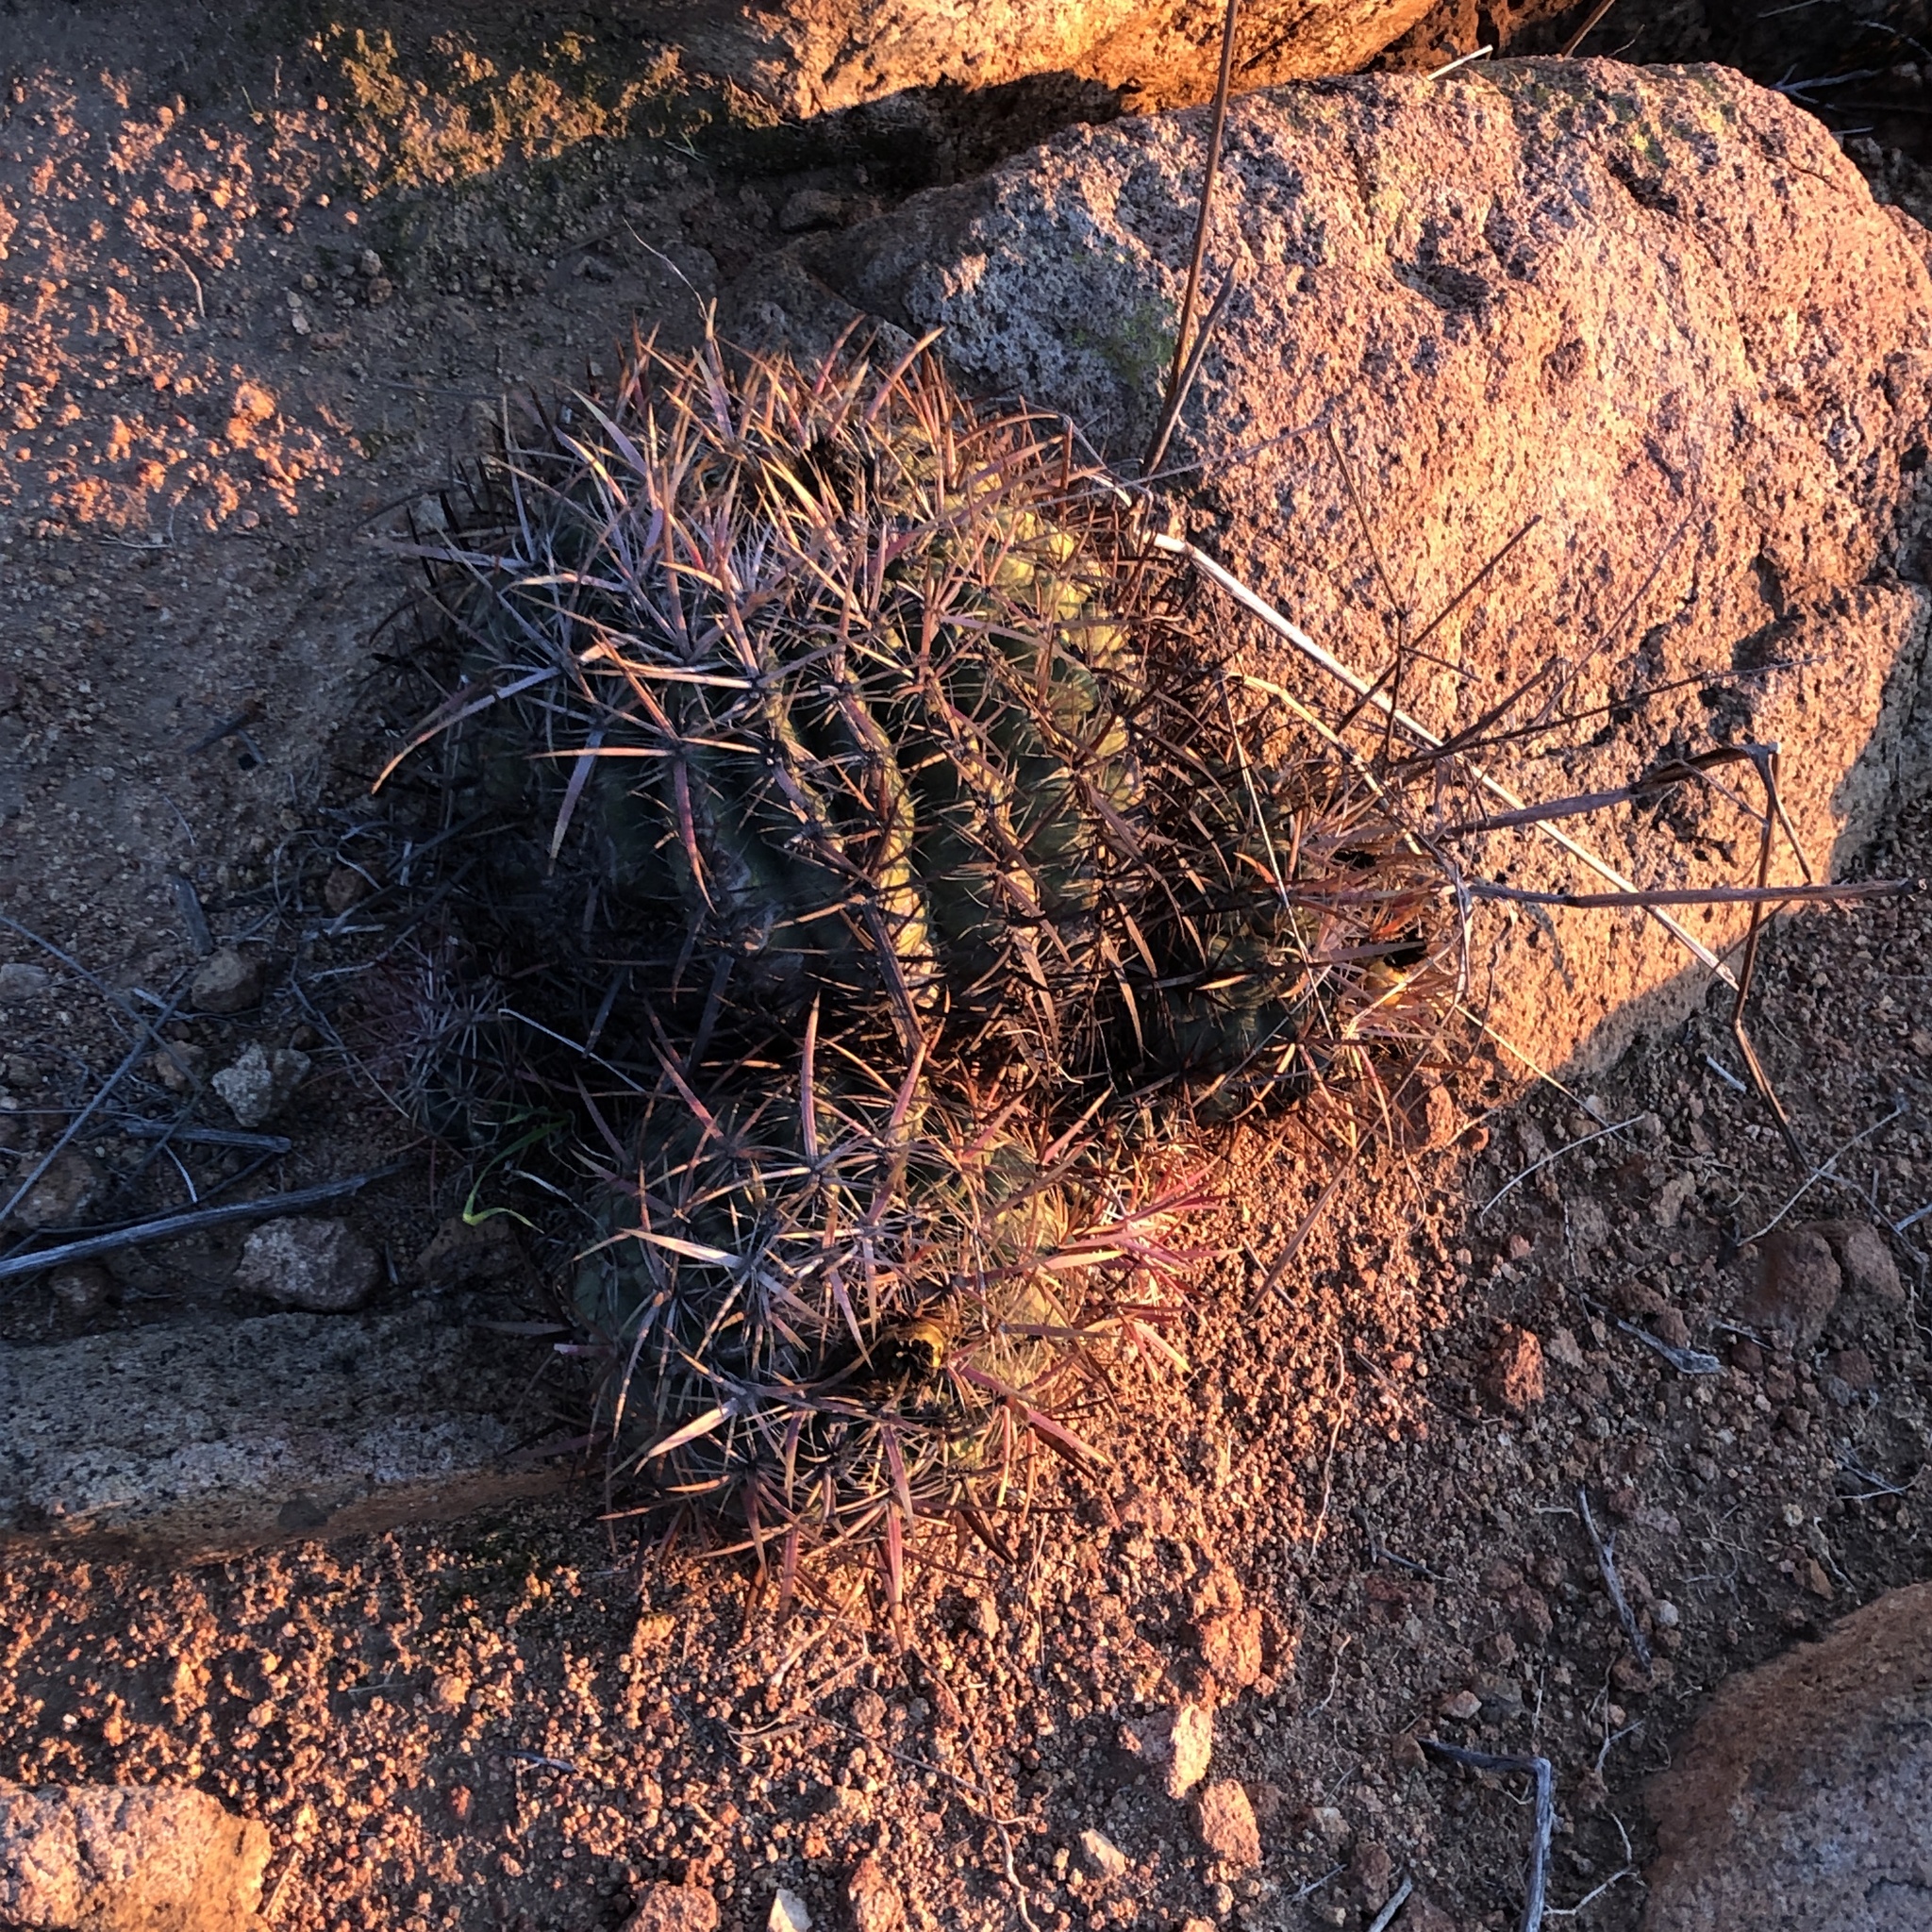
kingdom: Plantae
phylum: Tracheophyta
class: Magnoliopsida
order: Caryophyllales
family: Cactaceae
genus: Ferocactus
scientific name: Ferocactus viridescens
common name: San diego barrel cactus
